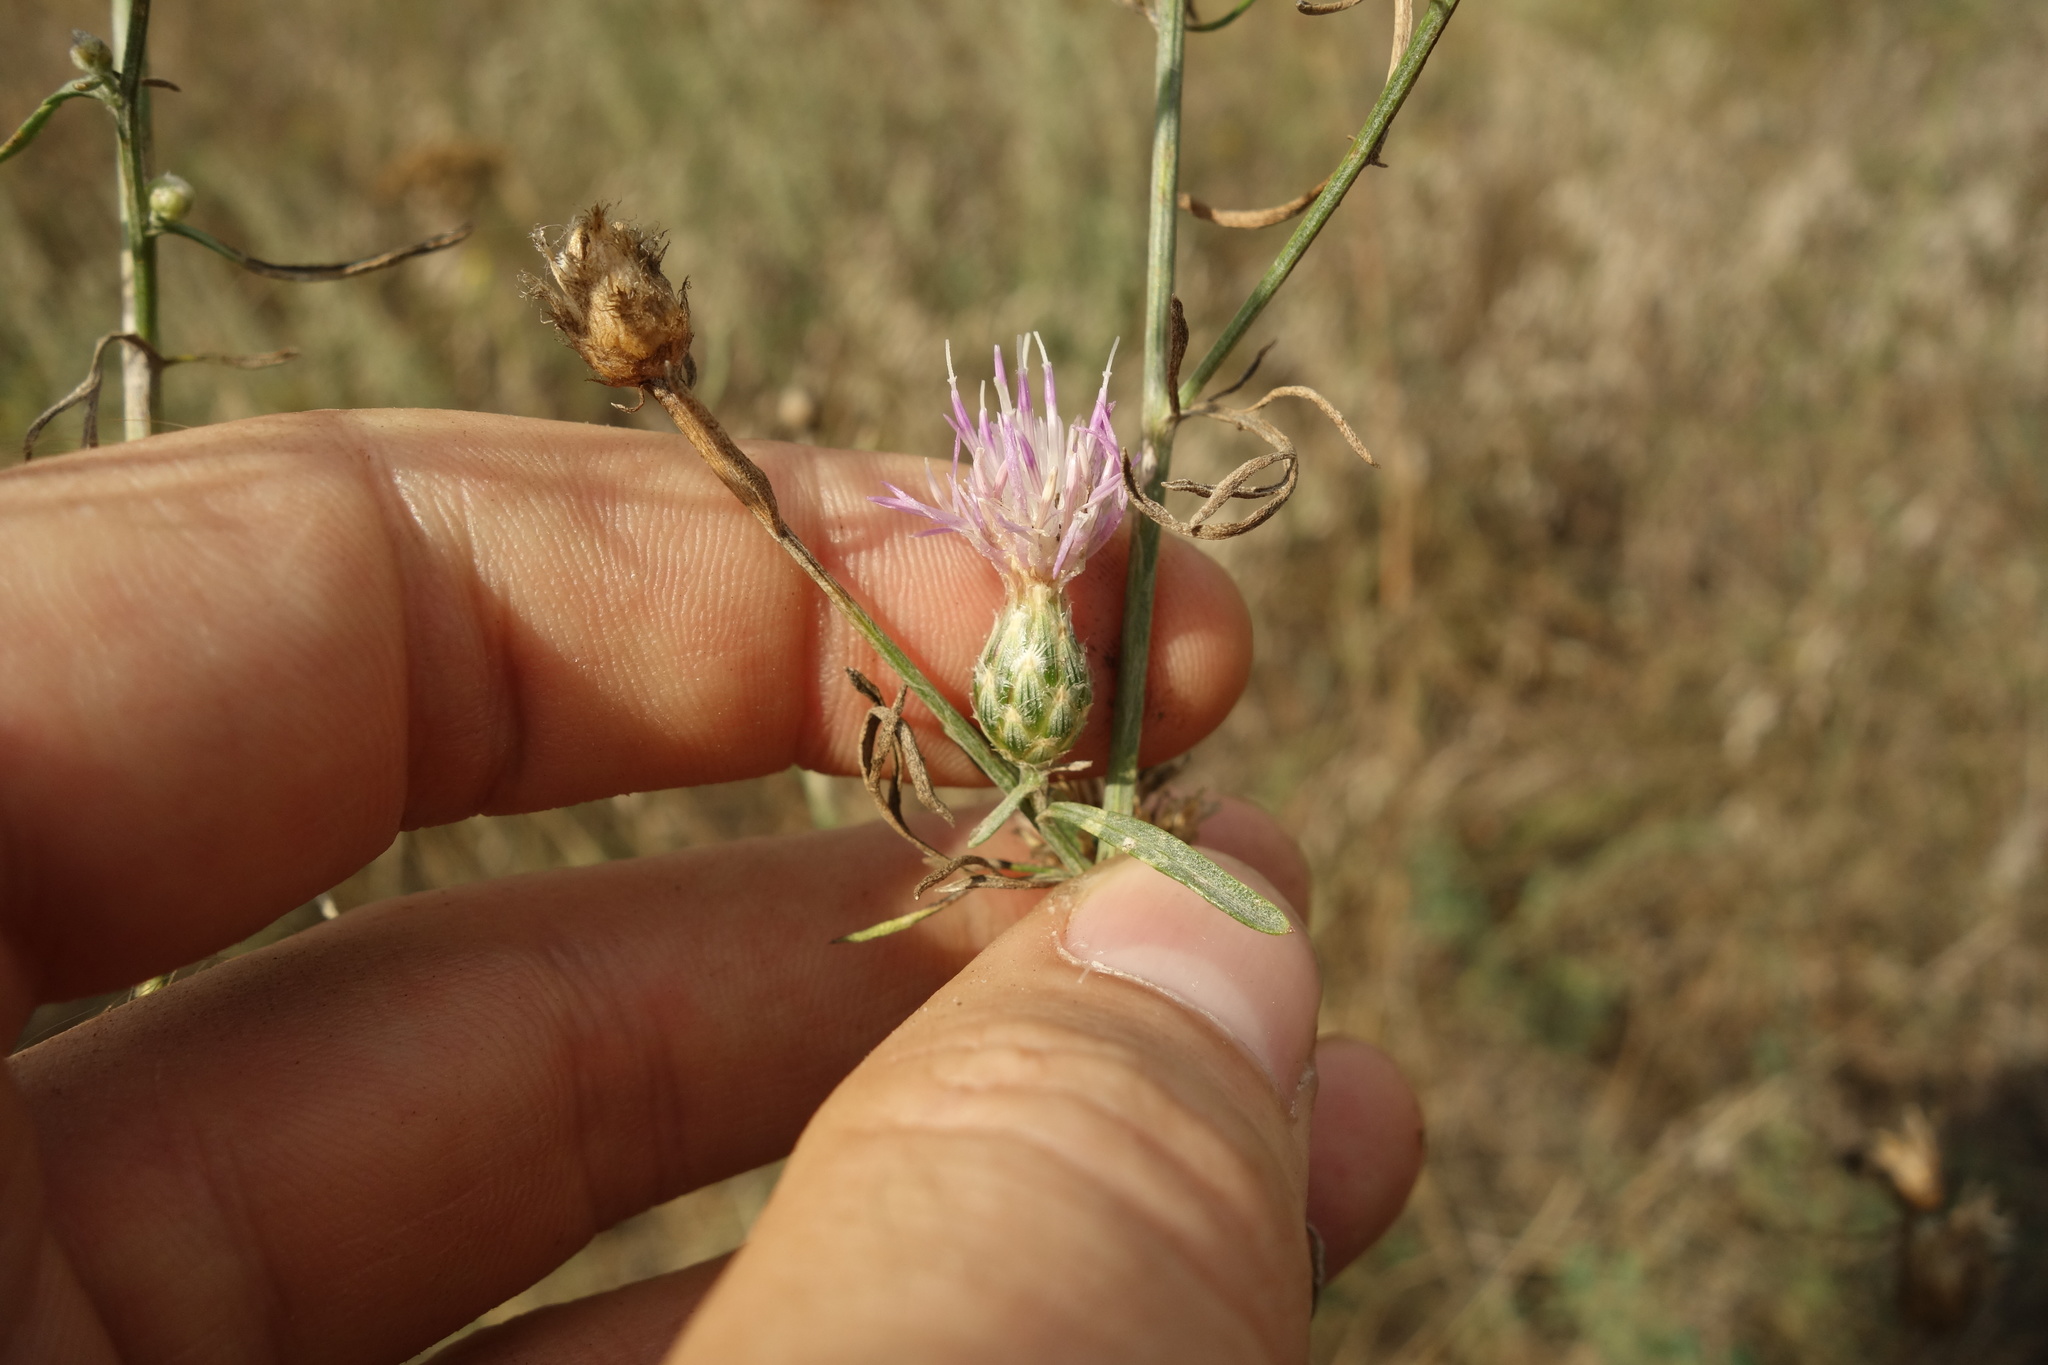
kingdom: Plantae
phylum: Tracheophyta
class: Magnoliopsida
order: Asterales
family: Asteraceae
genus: Centaurea
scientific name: Centaurea arenaria
